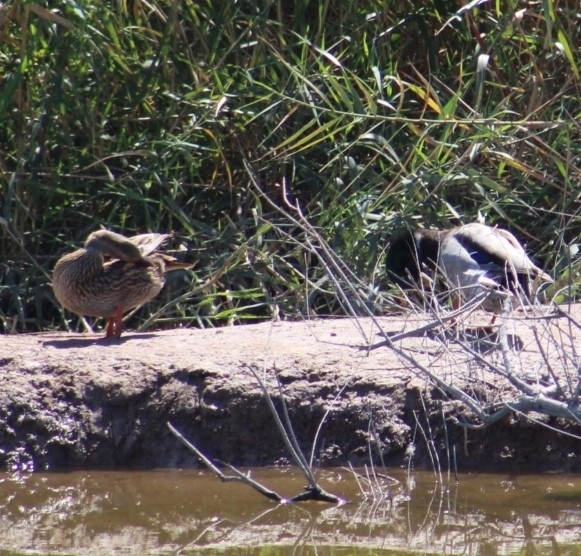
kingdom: Animalia
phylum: Chordata
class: Aves
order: Anseriformes
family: Anatidae
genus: Anas
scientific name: Anas platyrhynchos
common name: Mallard
